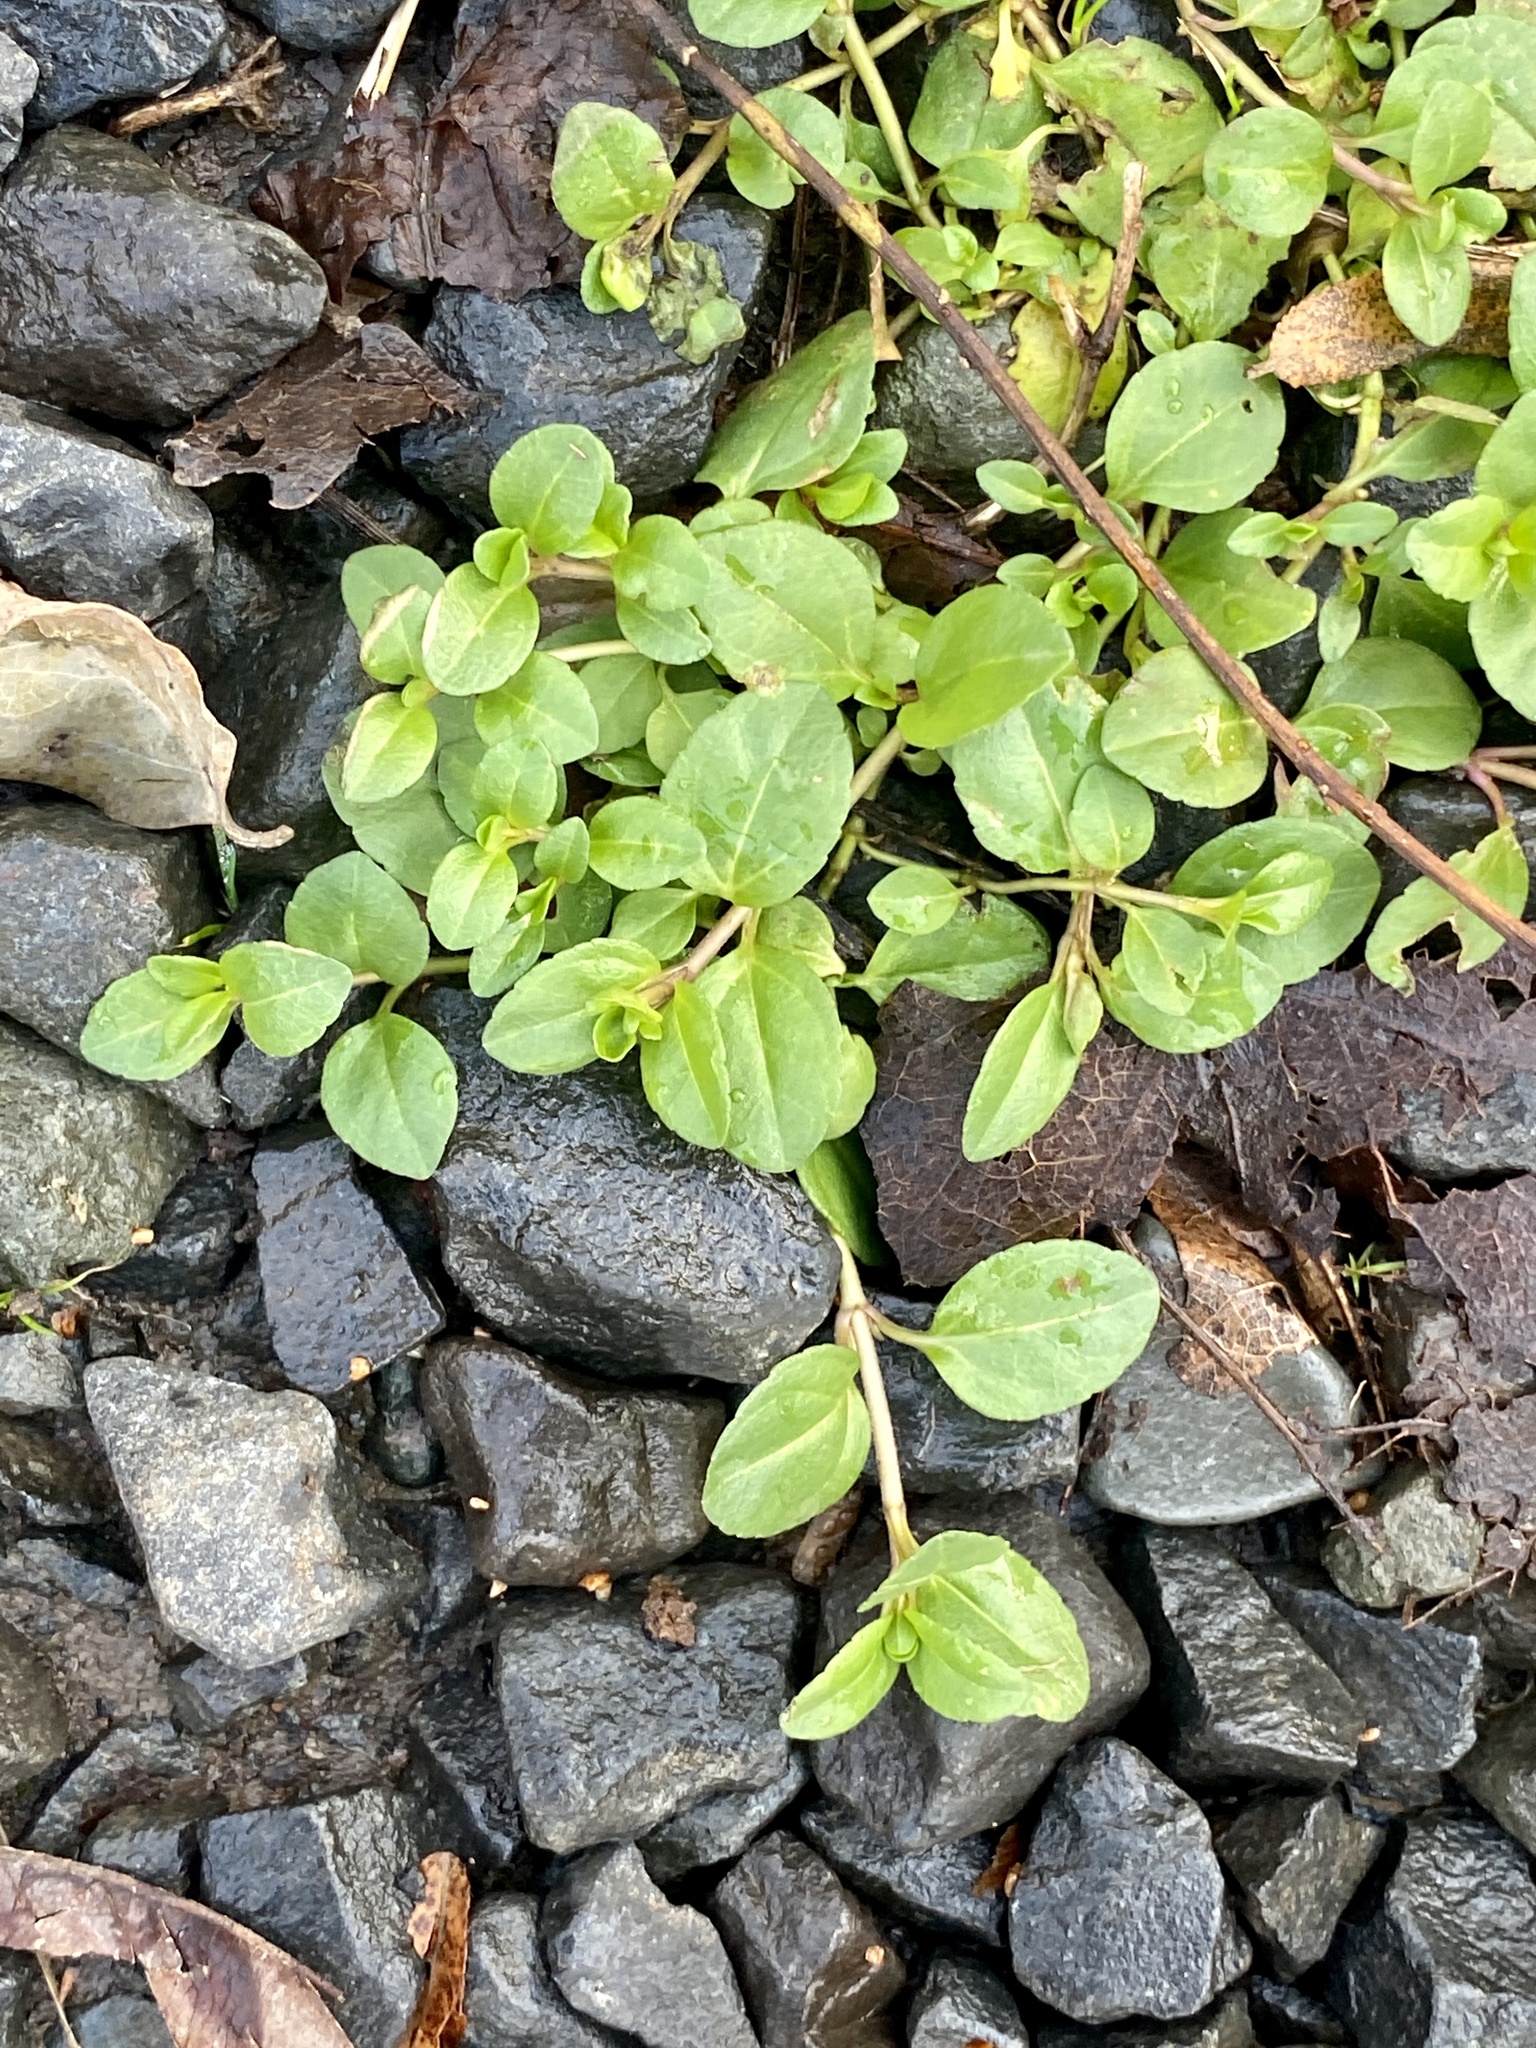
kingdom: Plantae
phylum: Tracheophyta
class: Magnoliopsida
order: Lamiales
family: Plantaginaceae
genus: Veronica
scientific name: Veronica serpyllifolia
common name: Thyme-leaved speedwell
